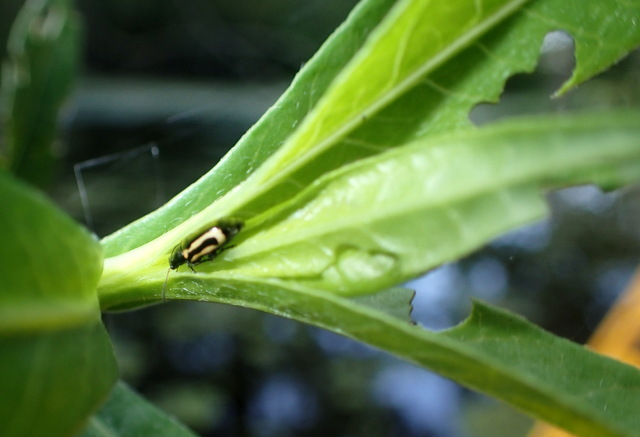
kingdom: Animalia
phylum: Arthropoda
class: Insecta
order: Coleoptera
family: Chrysomelidae
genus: Agasicles
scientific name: Agasicles hygrophila
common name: Alligatorweed flea beetle
